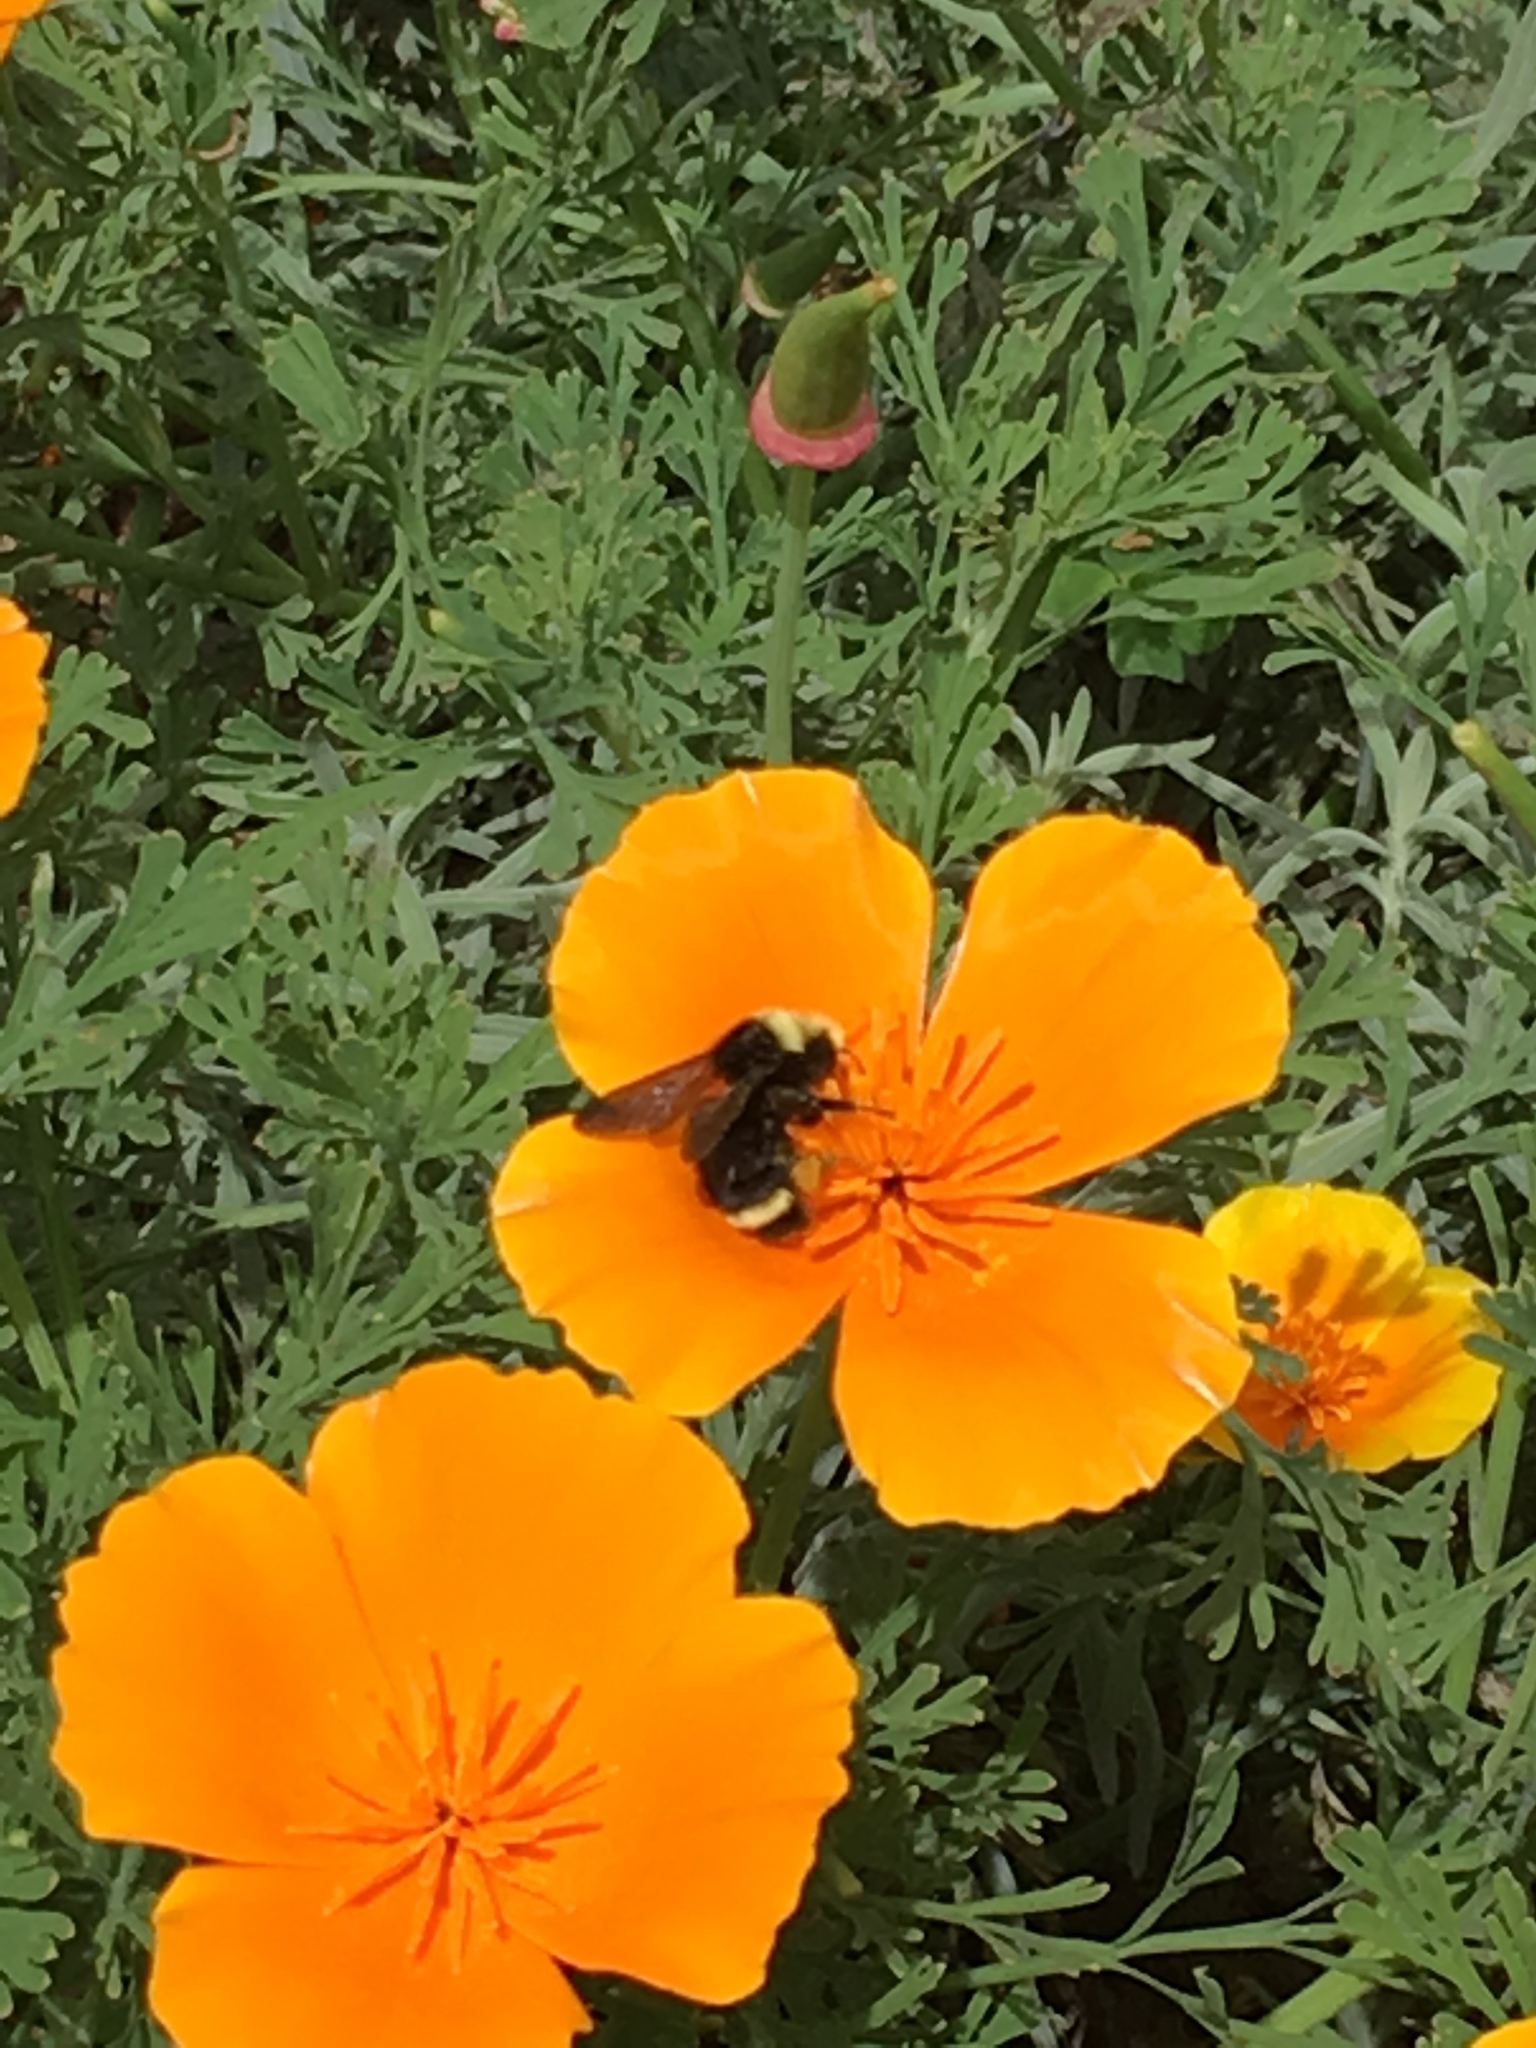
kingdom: Animalia
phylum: Arthropoda
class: Insecta
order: Hymenoptera
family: Apidae
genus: Pyrobombus
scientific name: Pyrobombus
